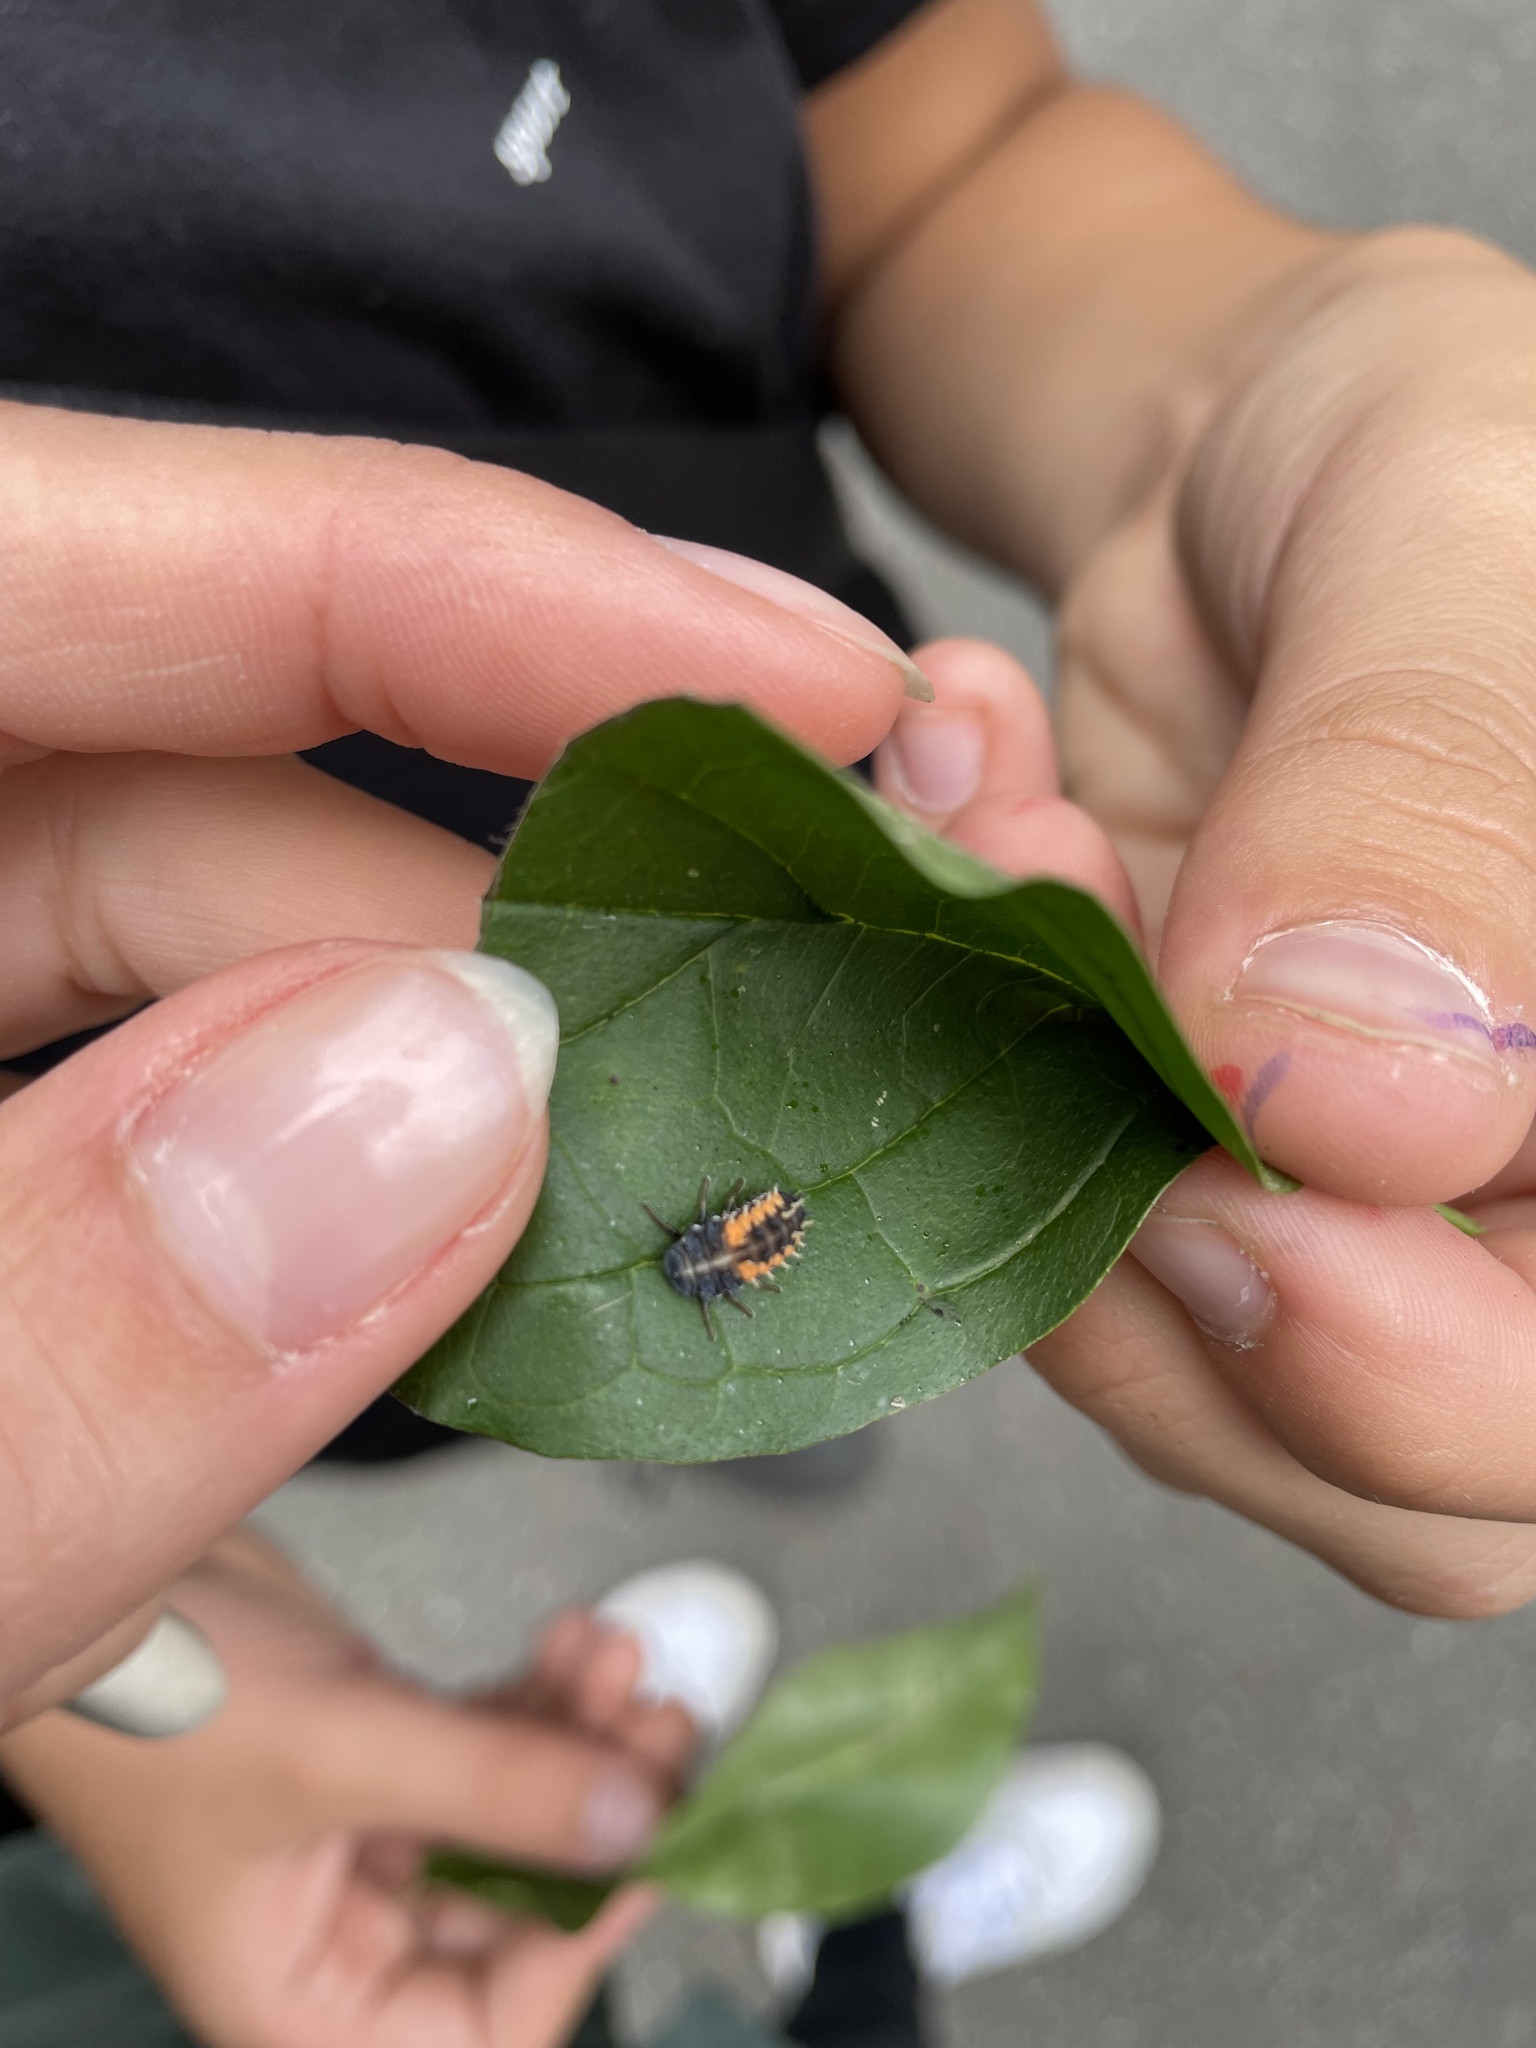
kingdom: Animalia
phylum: Arthropoda
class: Insecta
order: Coleoptera
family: Coccinellidae
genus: Harmonia
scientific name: Harmonia axyridis
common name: Harlequin ladybird
